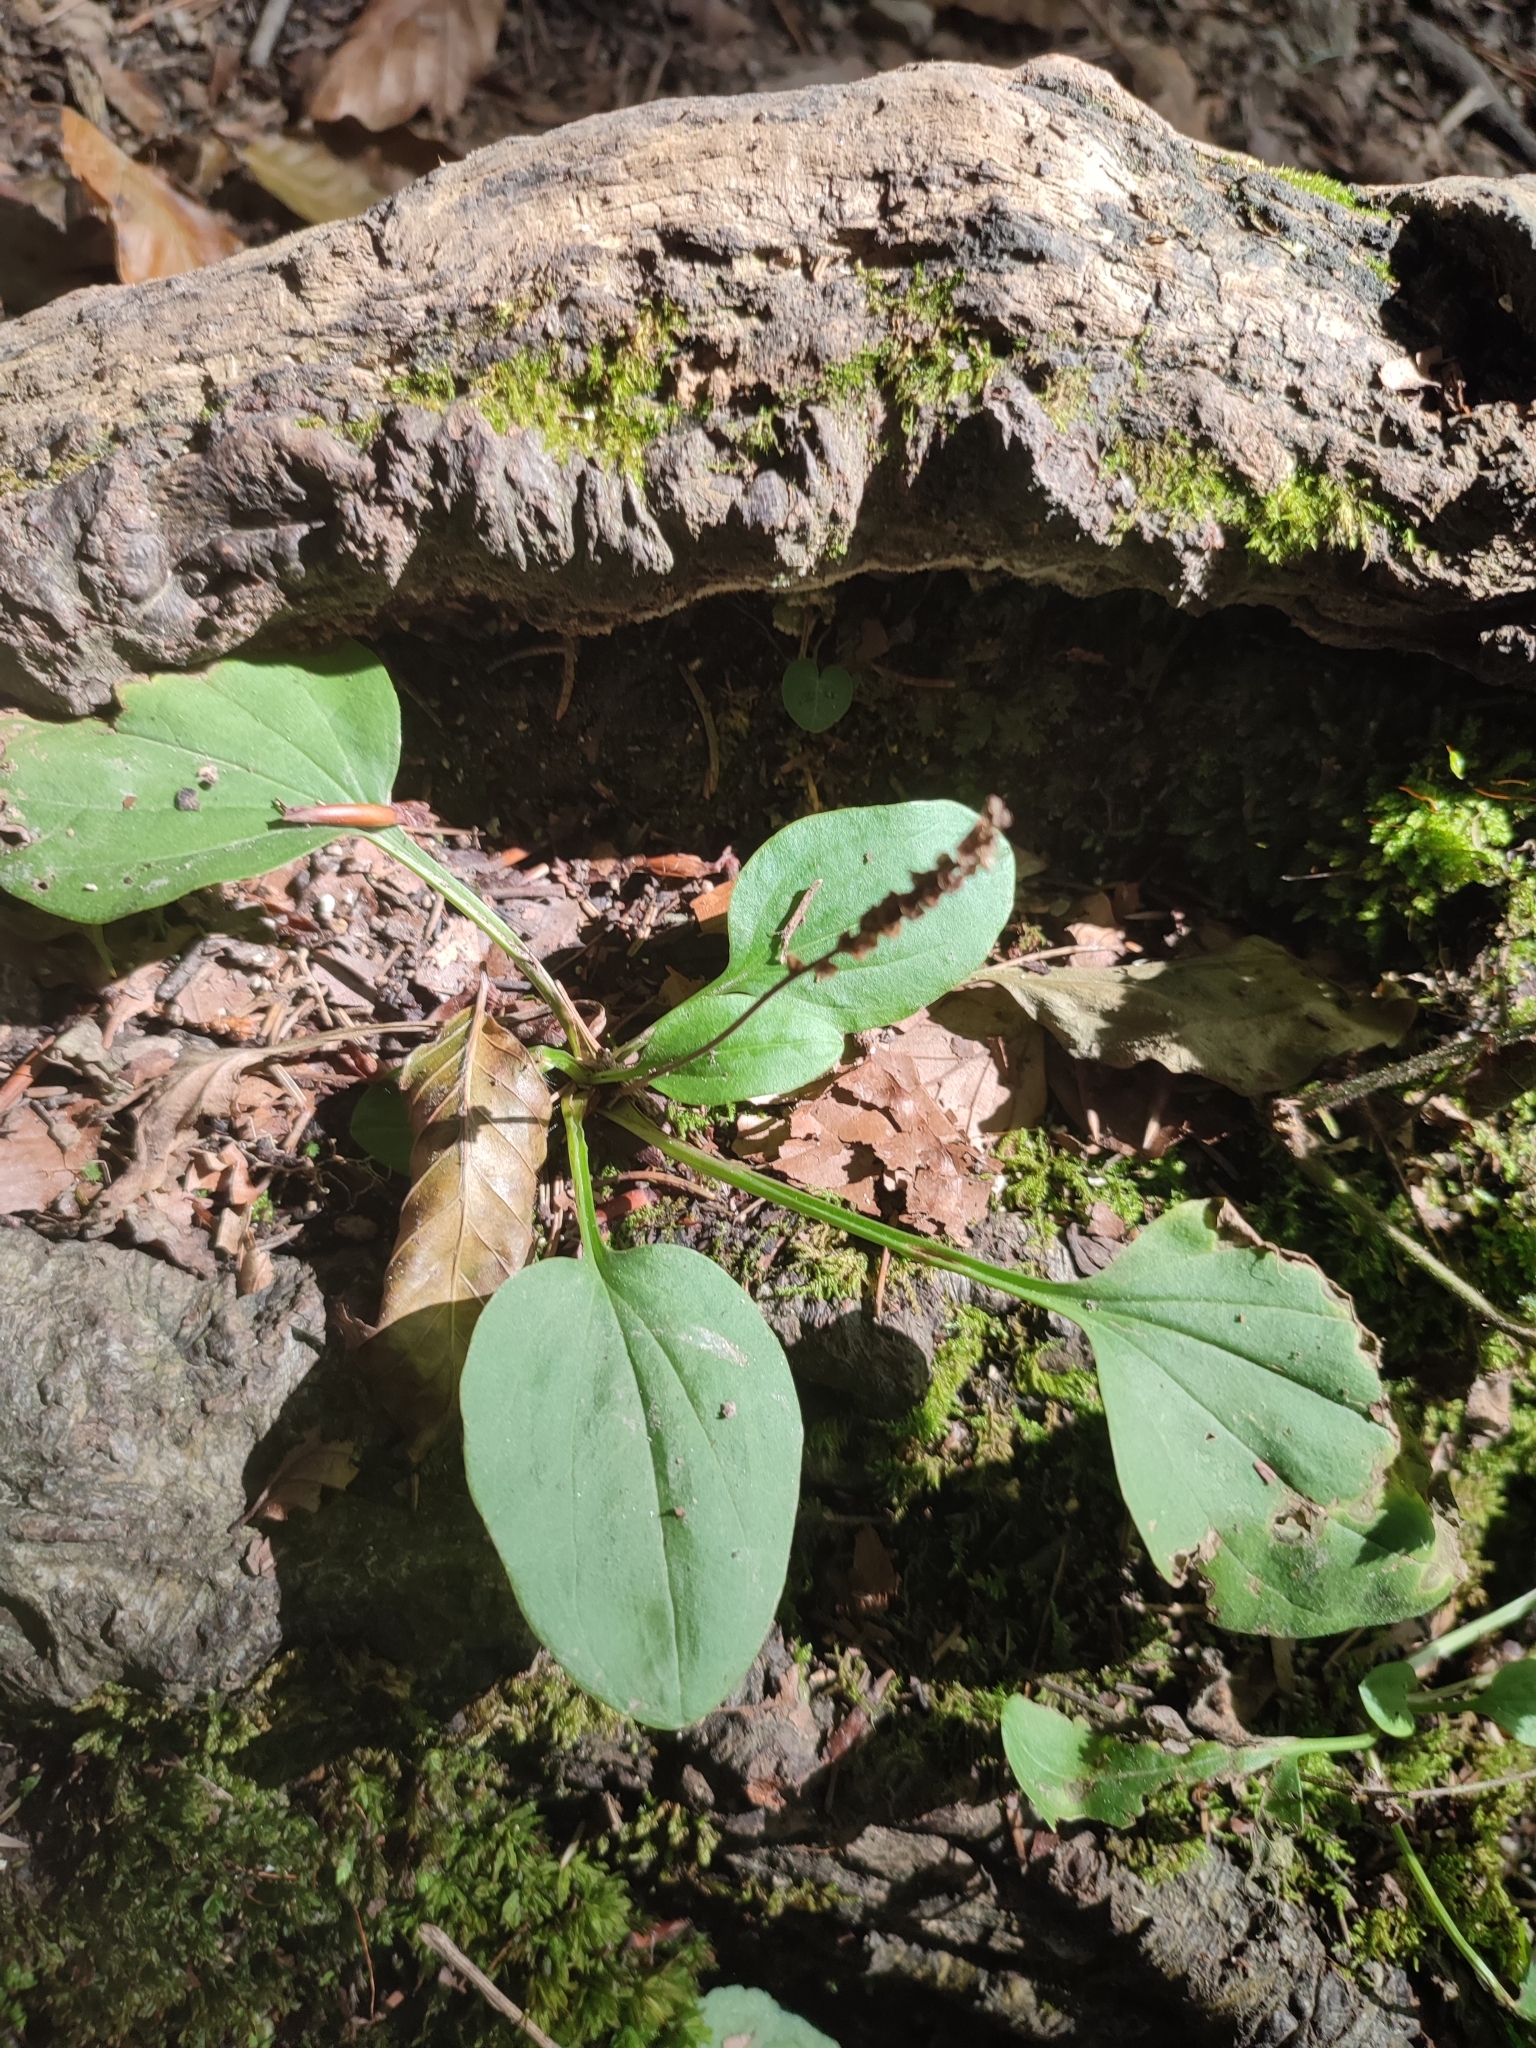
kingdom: Plantae
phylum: Tracheophyta
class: Magnoliopsida
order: Lamiales
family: Plantaginaceae
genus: Plantago
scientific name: Plantago major
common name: Common plantain
